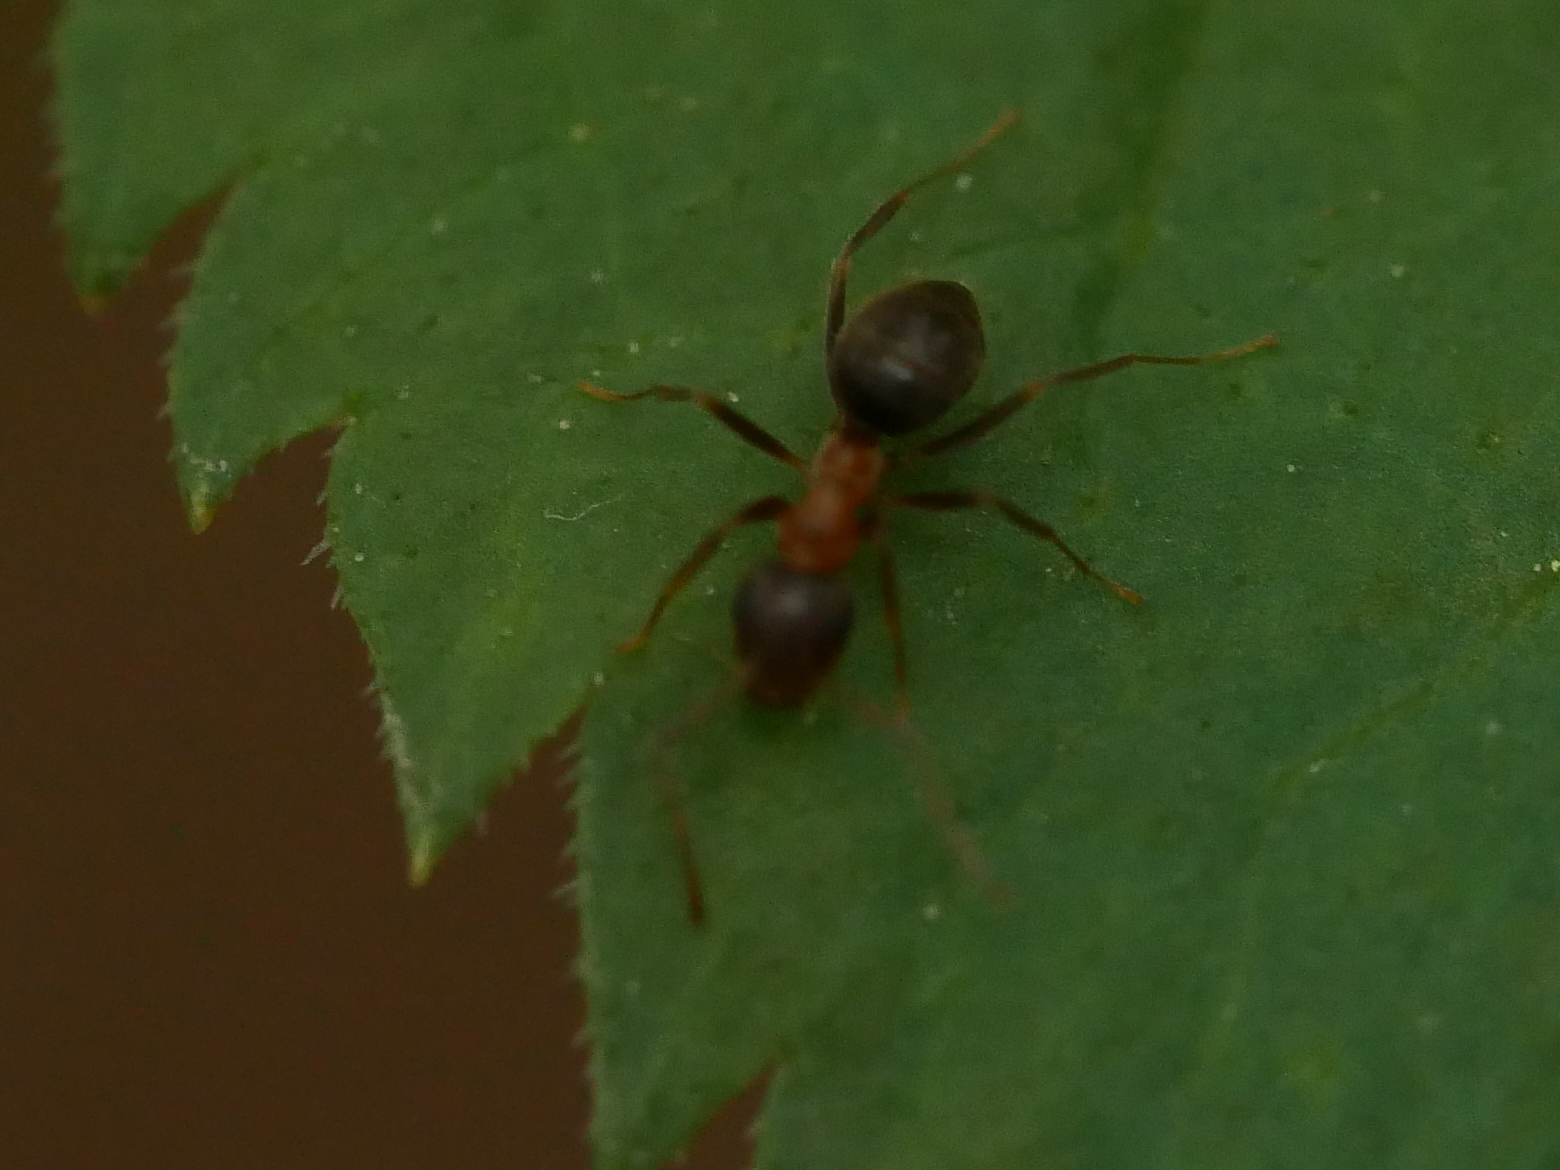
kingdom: Animalia
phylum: Arthropoda
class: Insecta
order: Hymenoptera
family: Formicidae
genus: Lasius
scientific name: Lasius emarginatus
